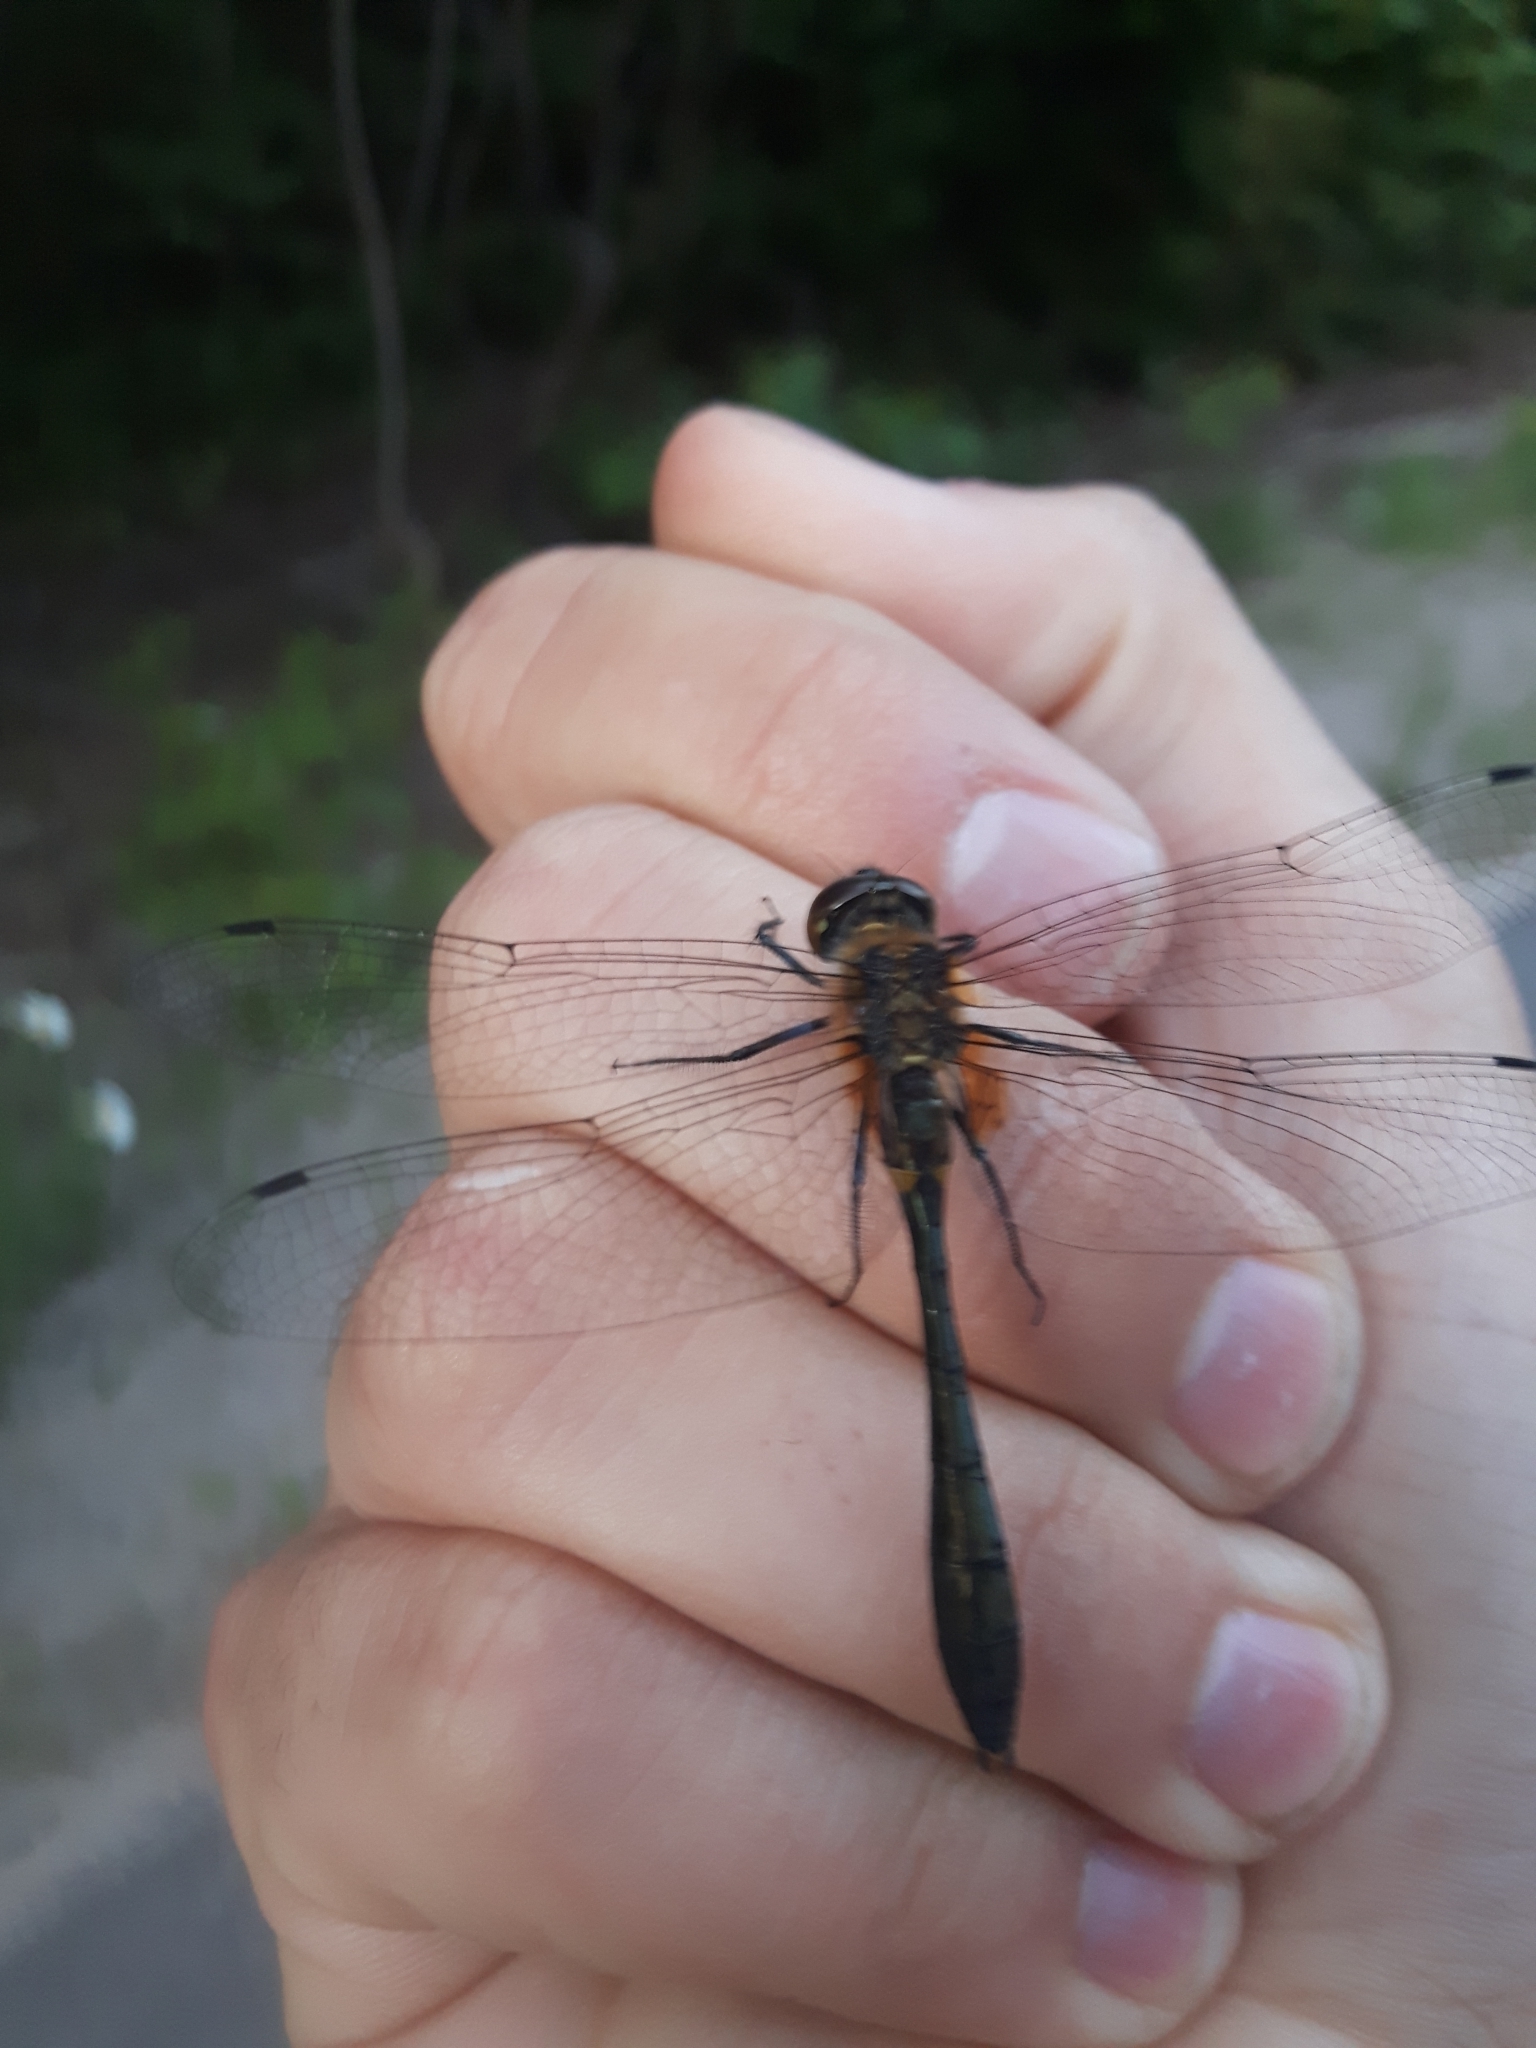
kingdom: Animalia
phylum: Arthropoda
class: Insecta
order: Odonata
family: Corduliidae
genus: Dorocordulia
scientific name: Dorocordulia libera
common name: Racket-tailed emerald
